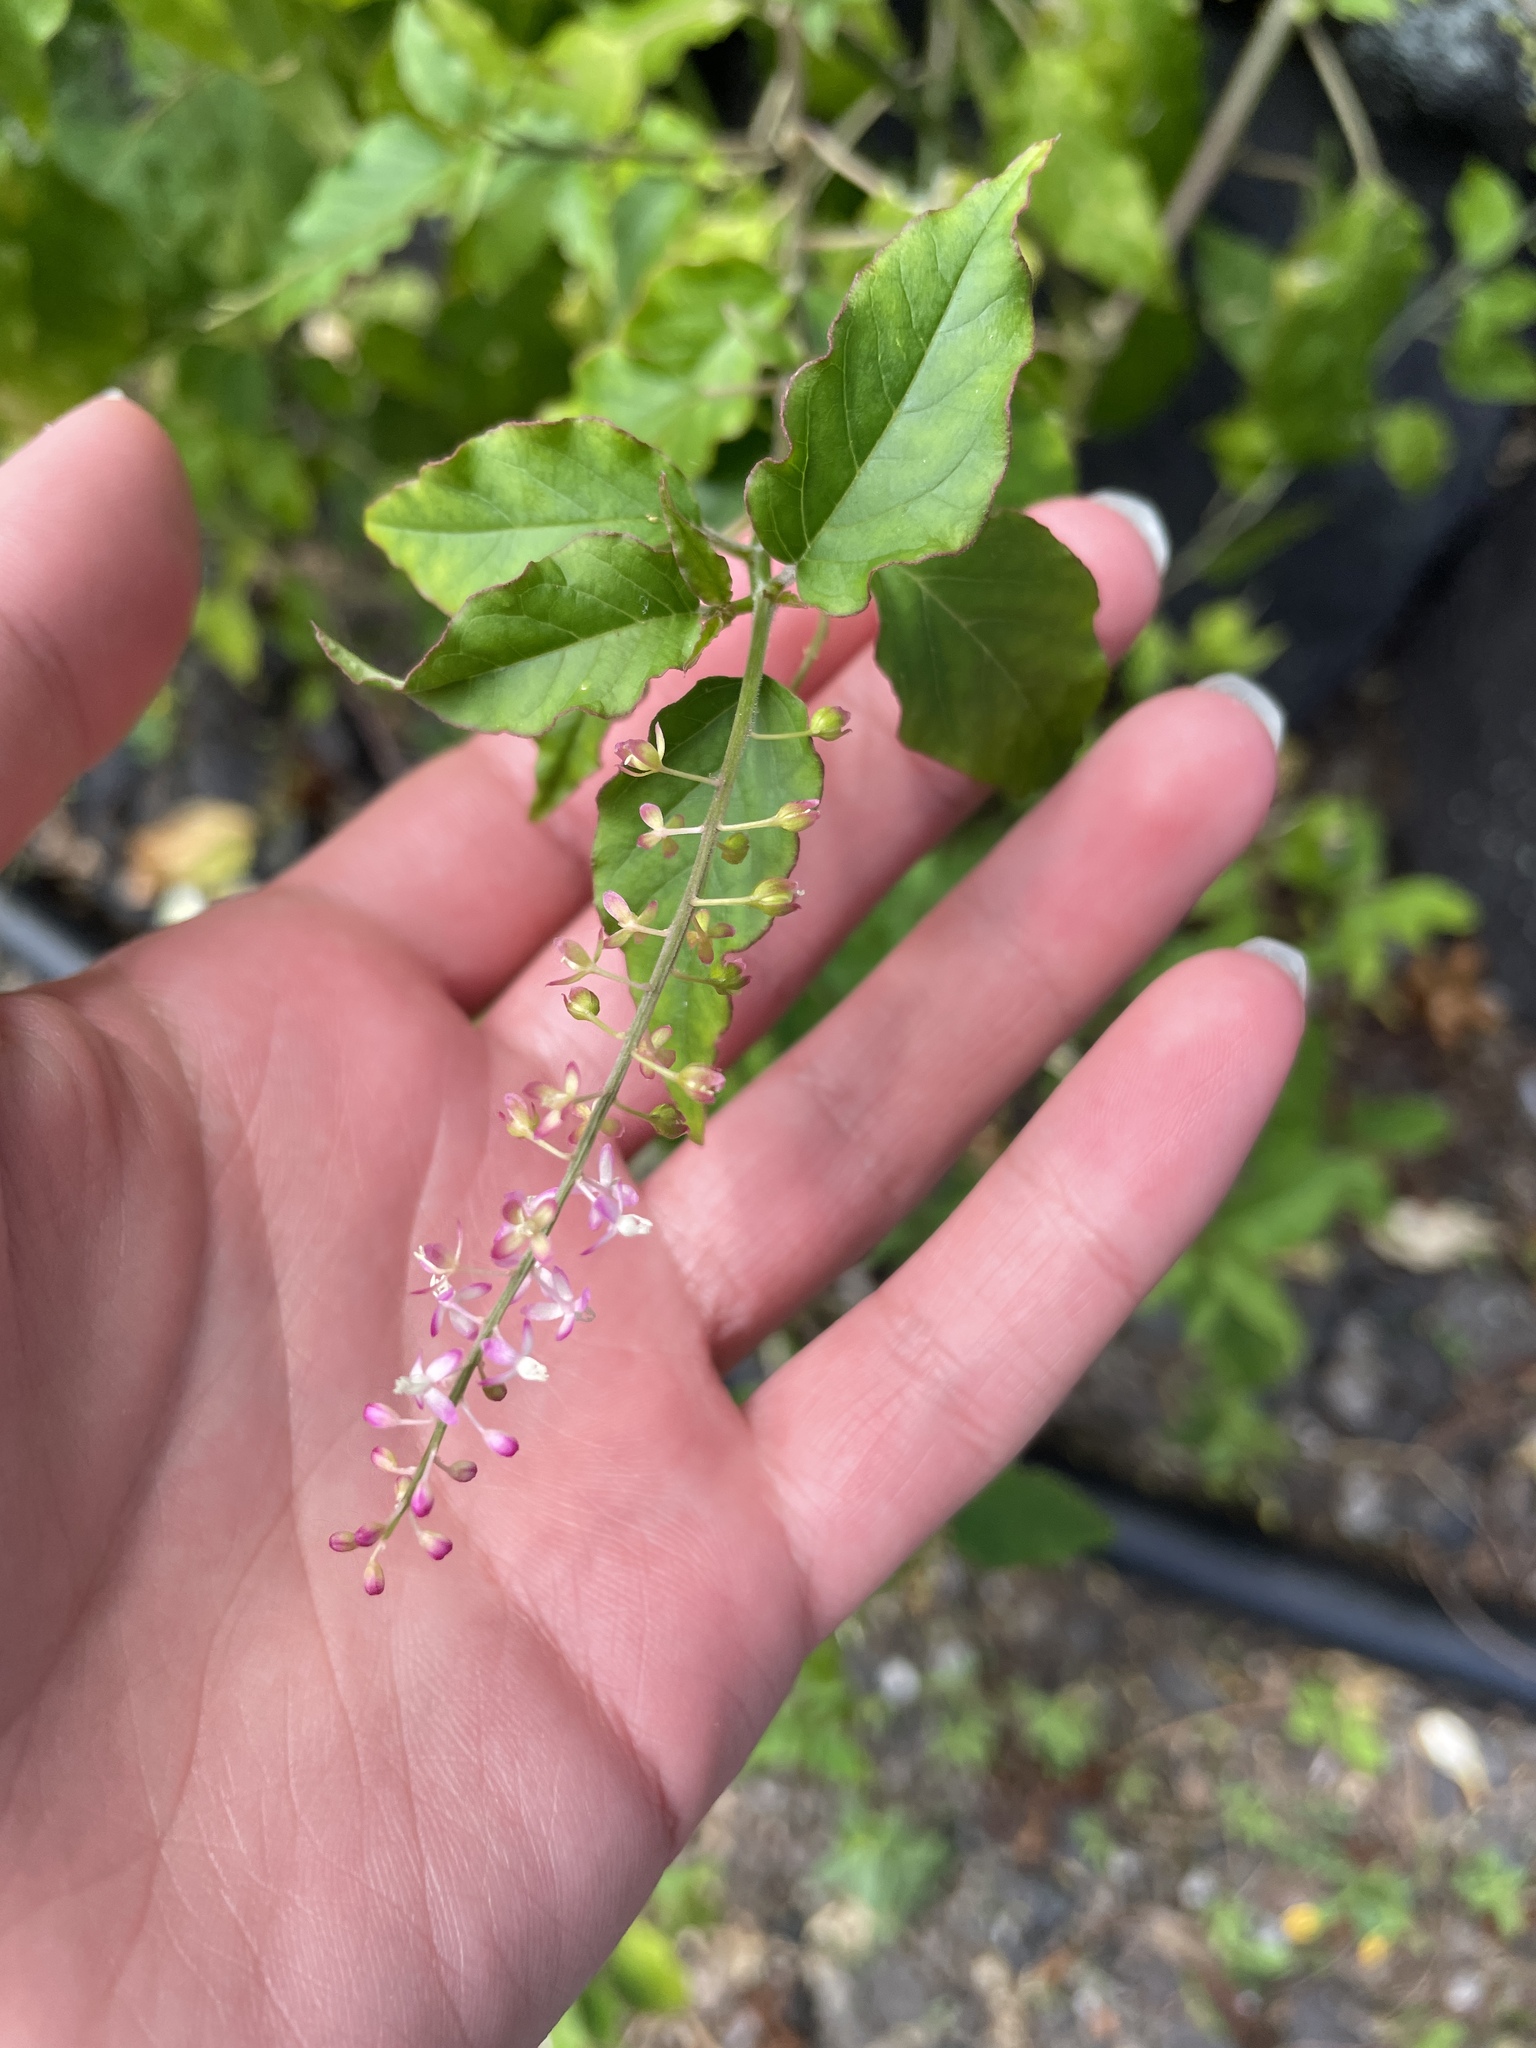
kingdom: Plantae
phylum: Tracheophyta
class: Magnoliopsida
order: Caryophyllales
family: Phytolaccaceae
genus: Rivina
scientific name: Rivina humilis
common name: Rougeplant
